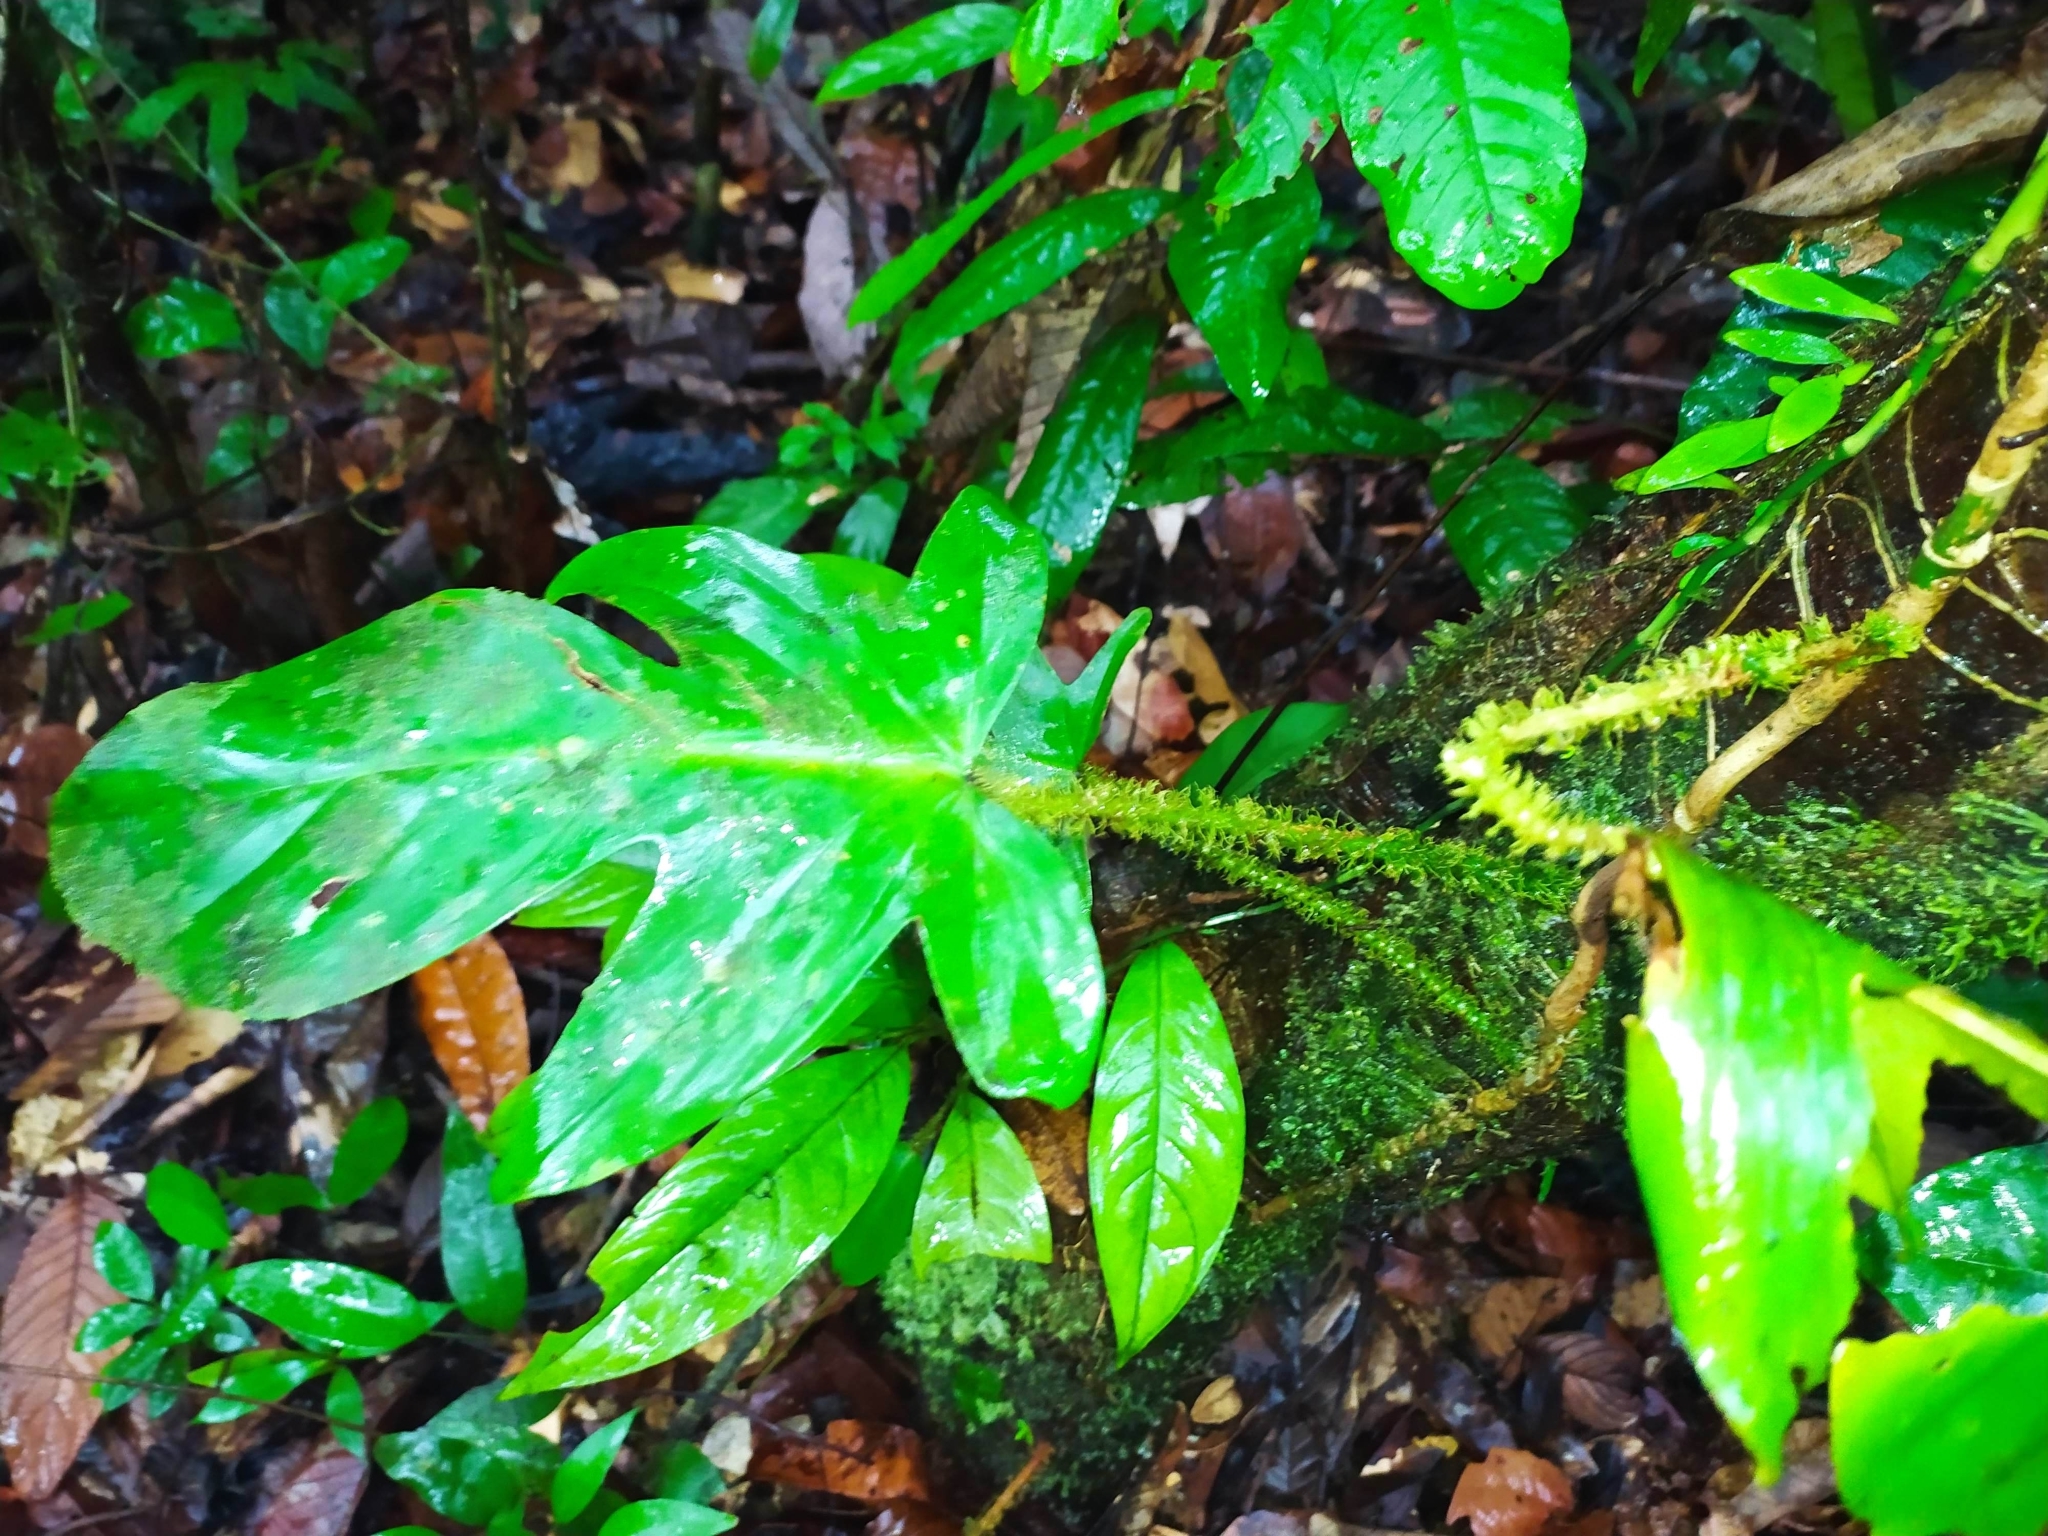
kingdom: Plantae
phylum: Tracheophyta
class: Liliopsida
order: Alismatales
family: Araceae
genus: Philodendron
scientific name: Philodendron squamiferum
